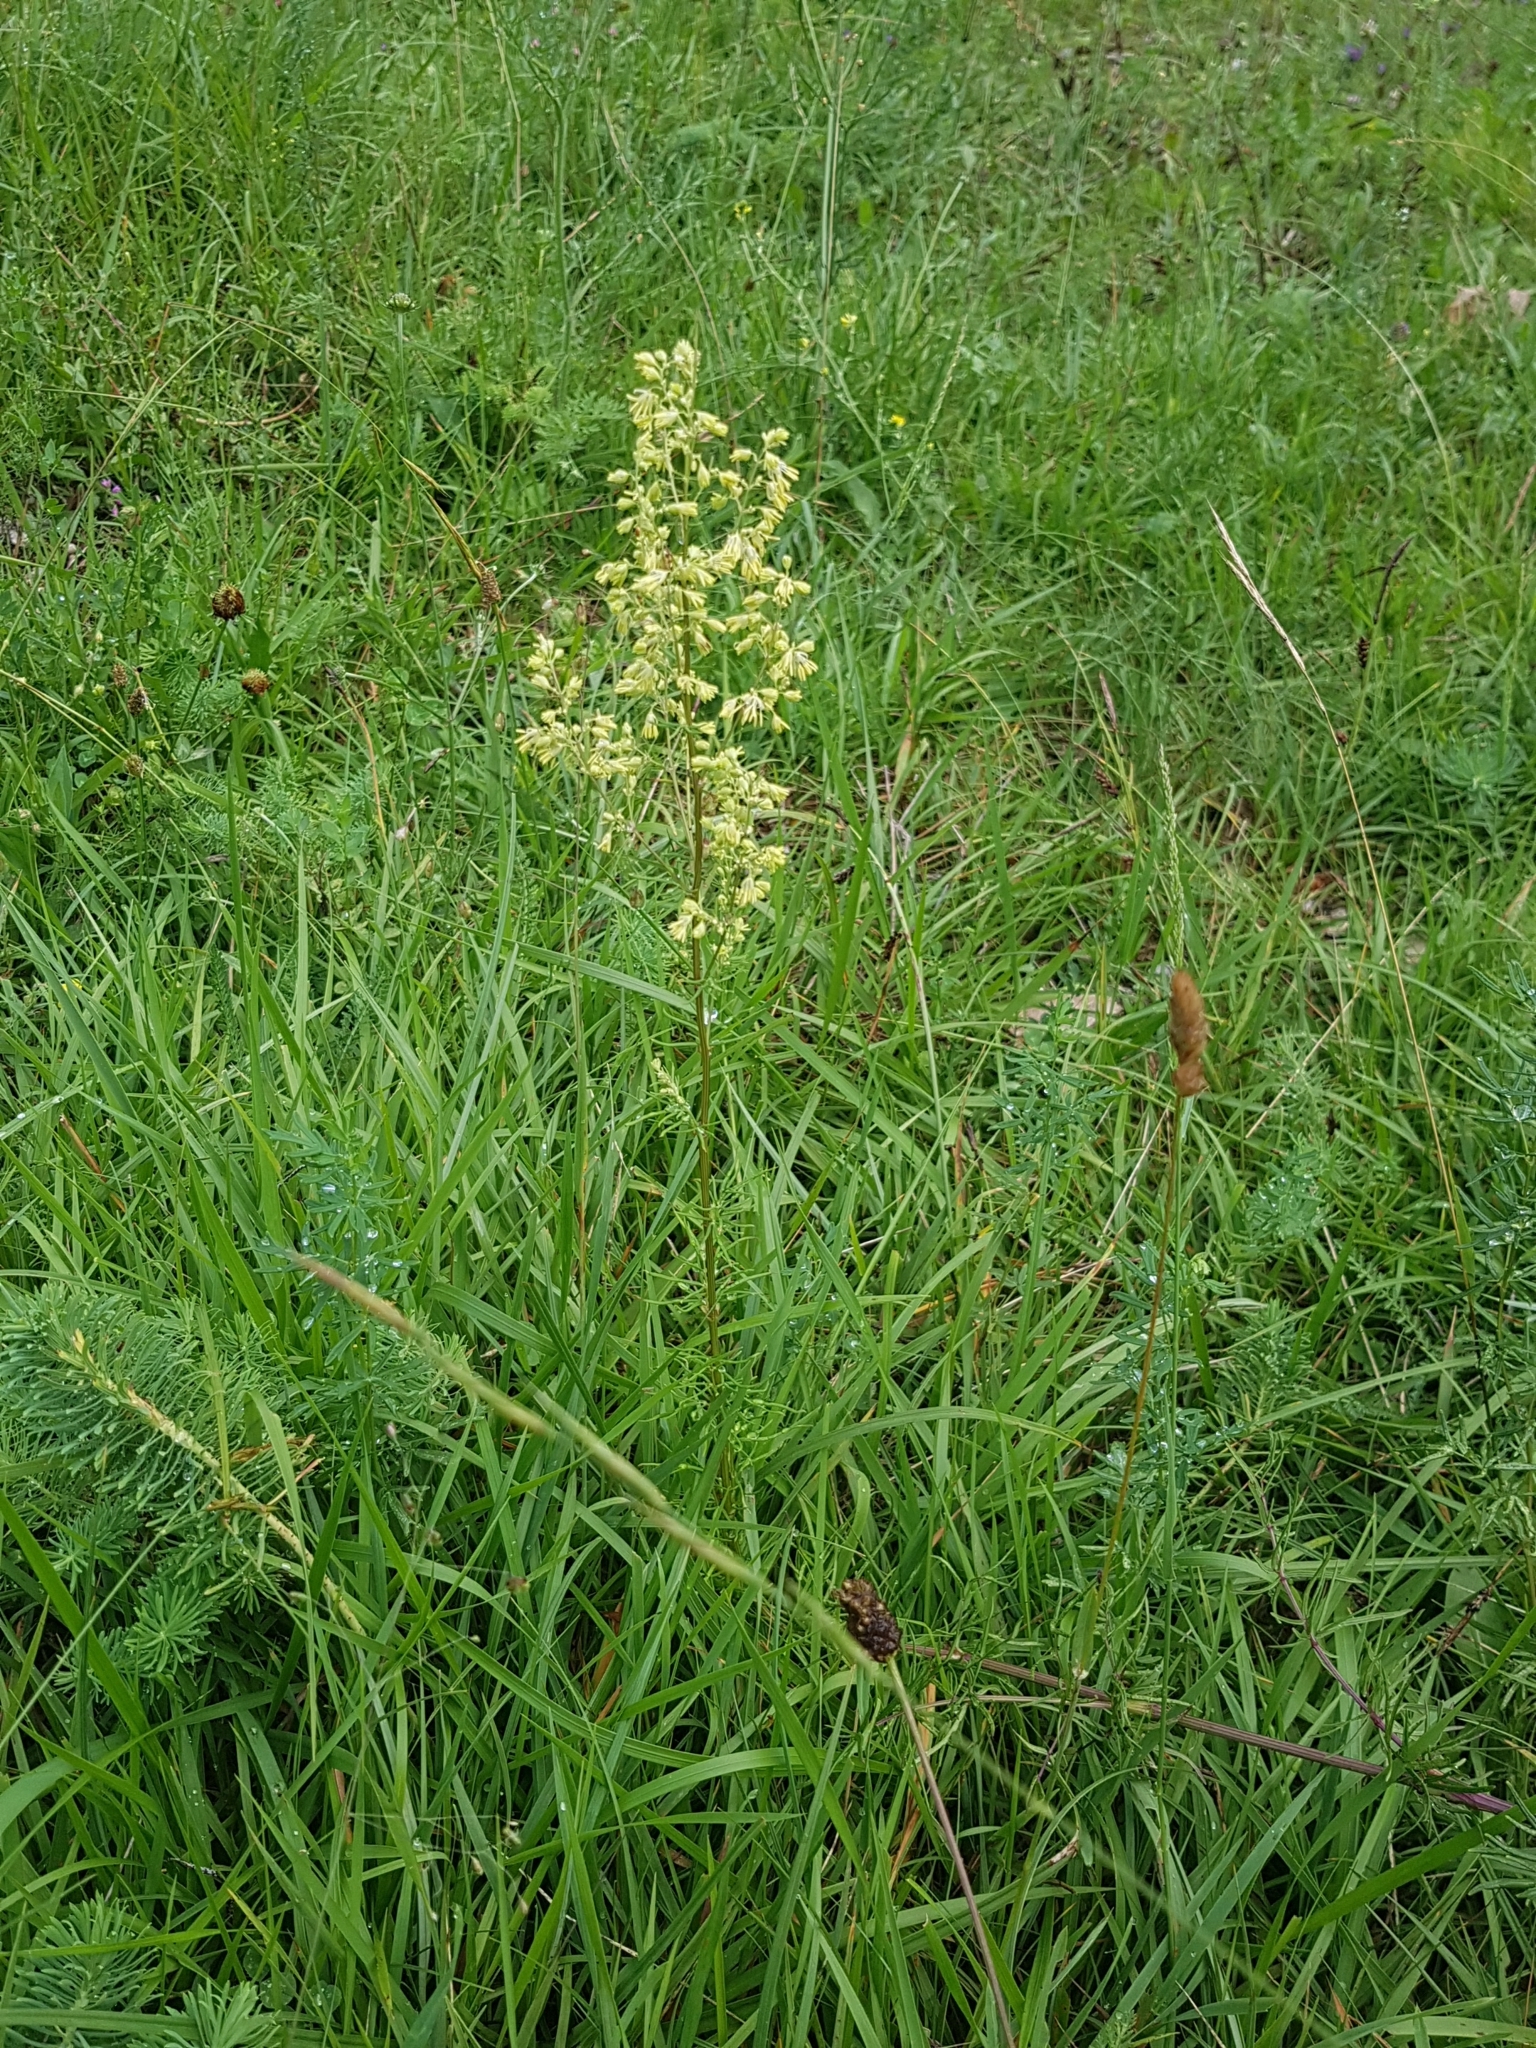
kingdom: Plantae
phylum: Tracheophyta
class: Magnoliopsida
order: Ranunculales
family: Ranunculaceae
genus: Thalictrum
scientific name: Thalictrum simplex
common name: Small meadow-rue
